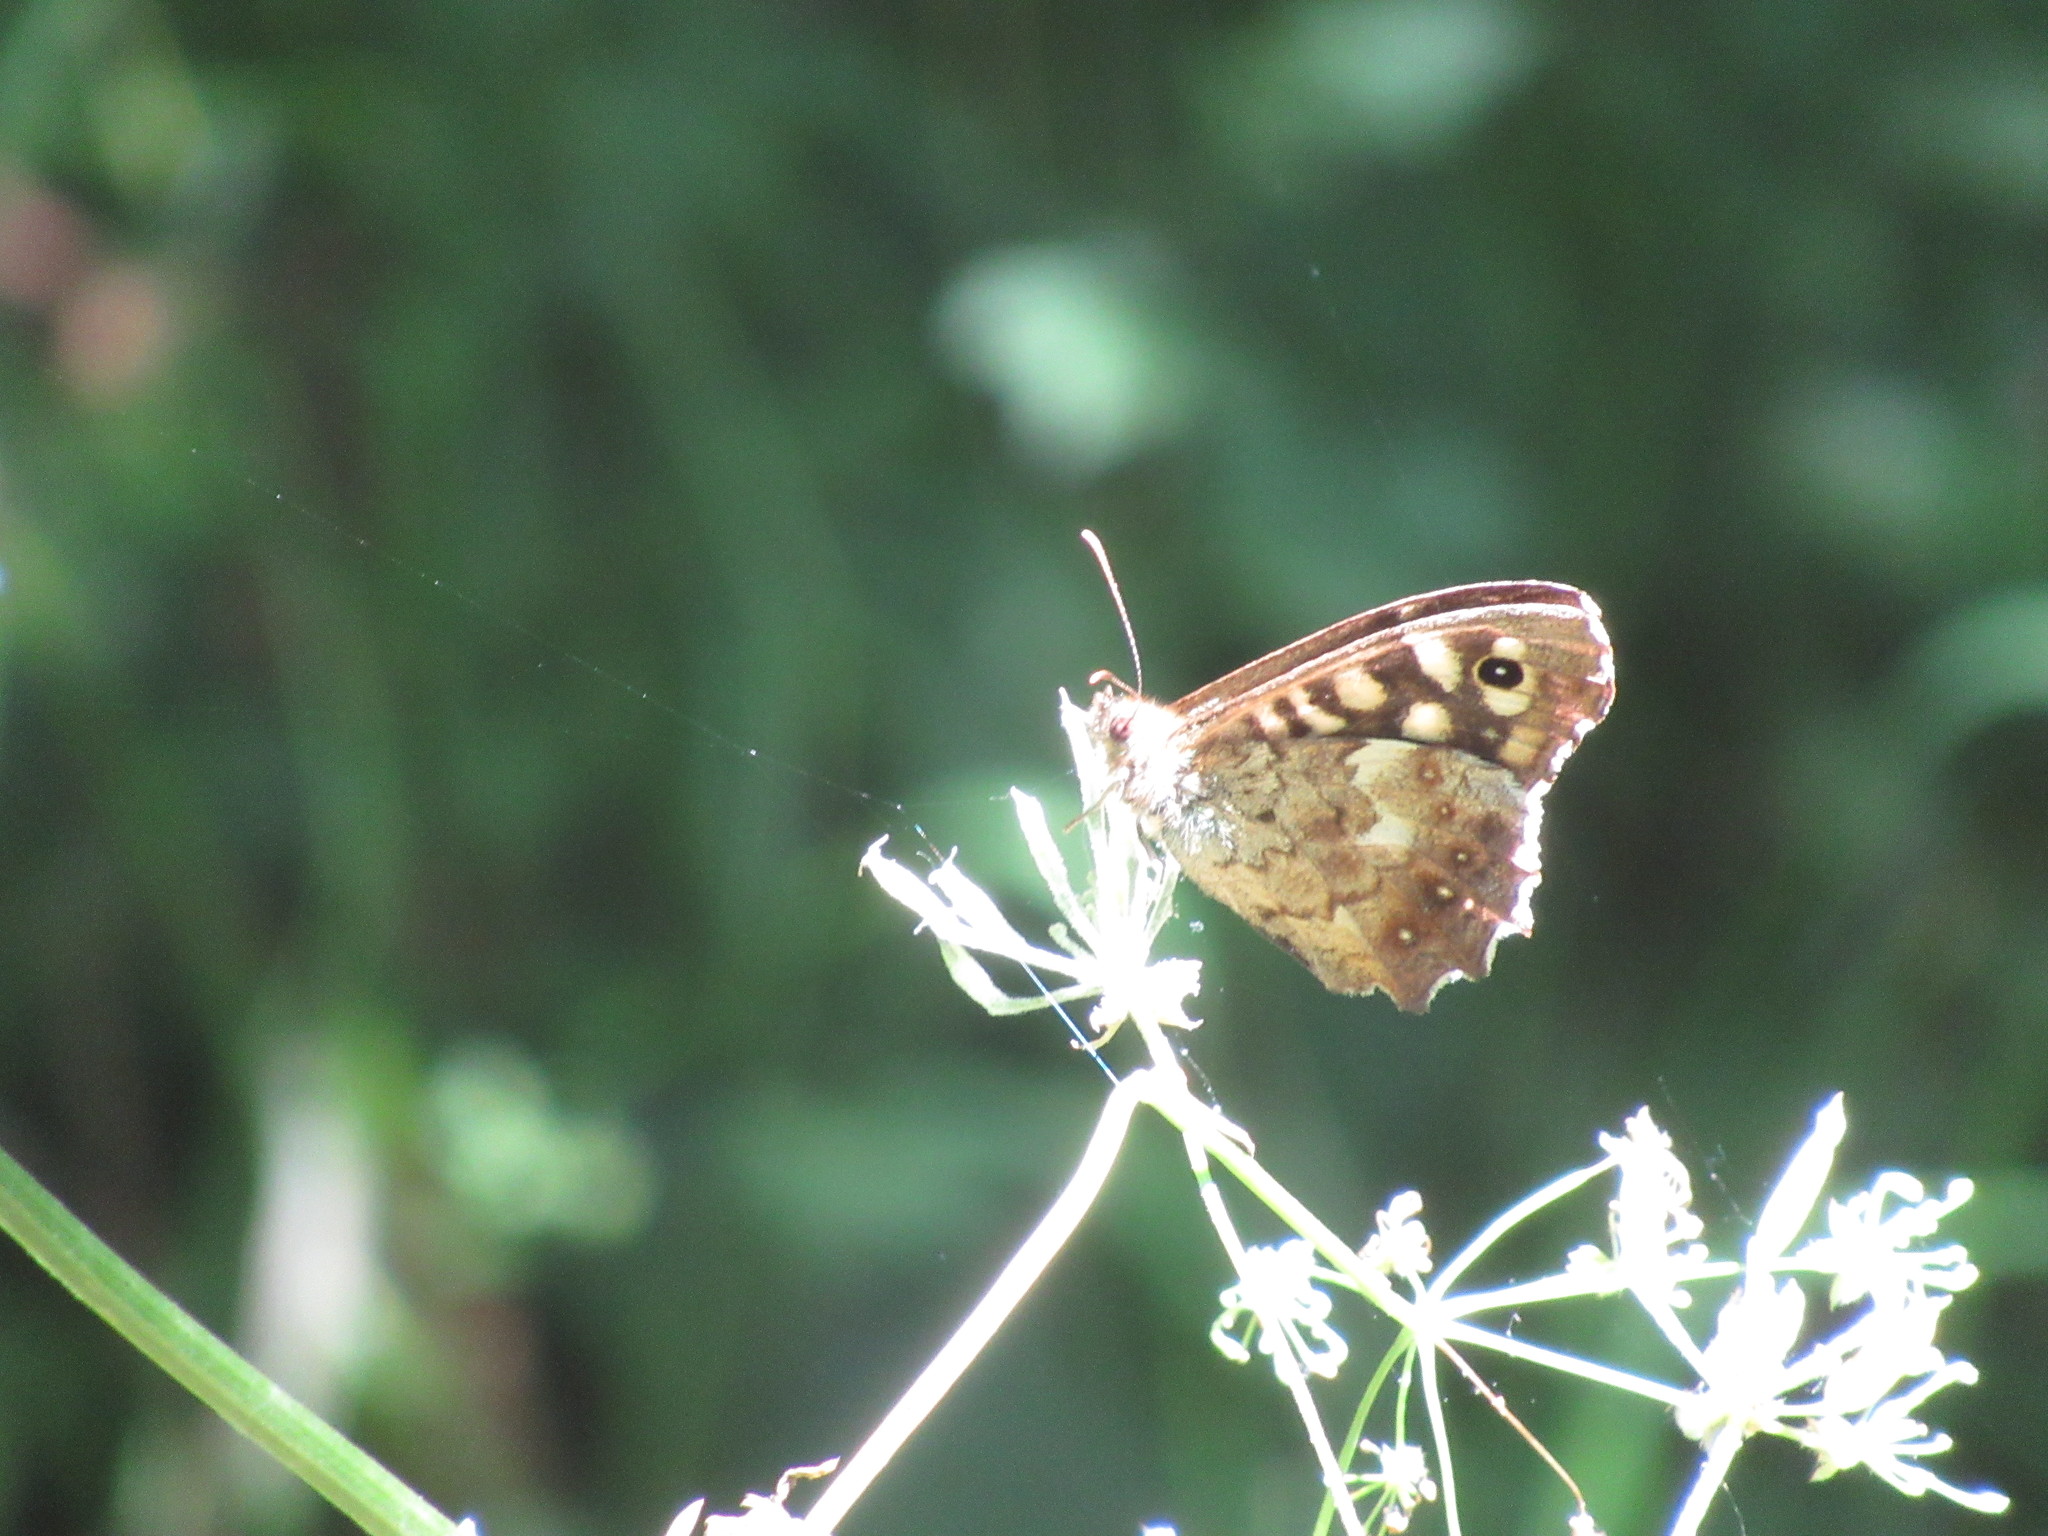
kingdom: Animalia
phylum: Arthropoda
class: Insecta
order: Lepidoptera
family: Nymphalidae
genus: Pararge
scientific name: Pararge aegeria
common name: Speckled wood
